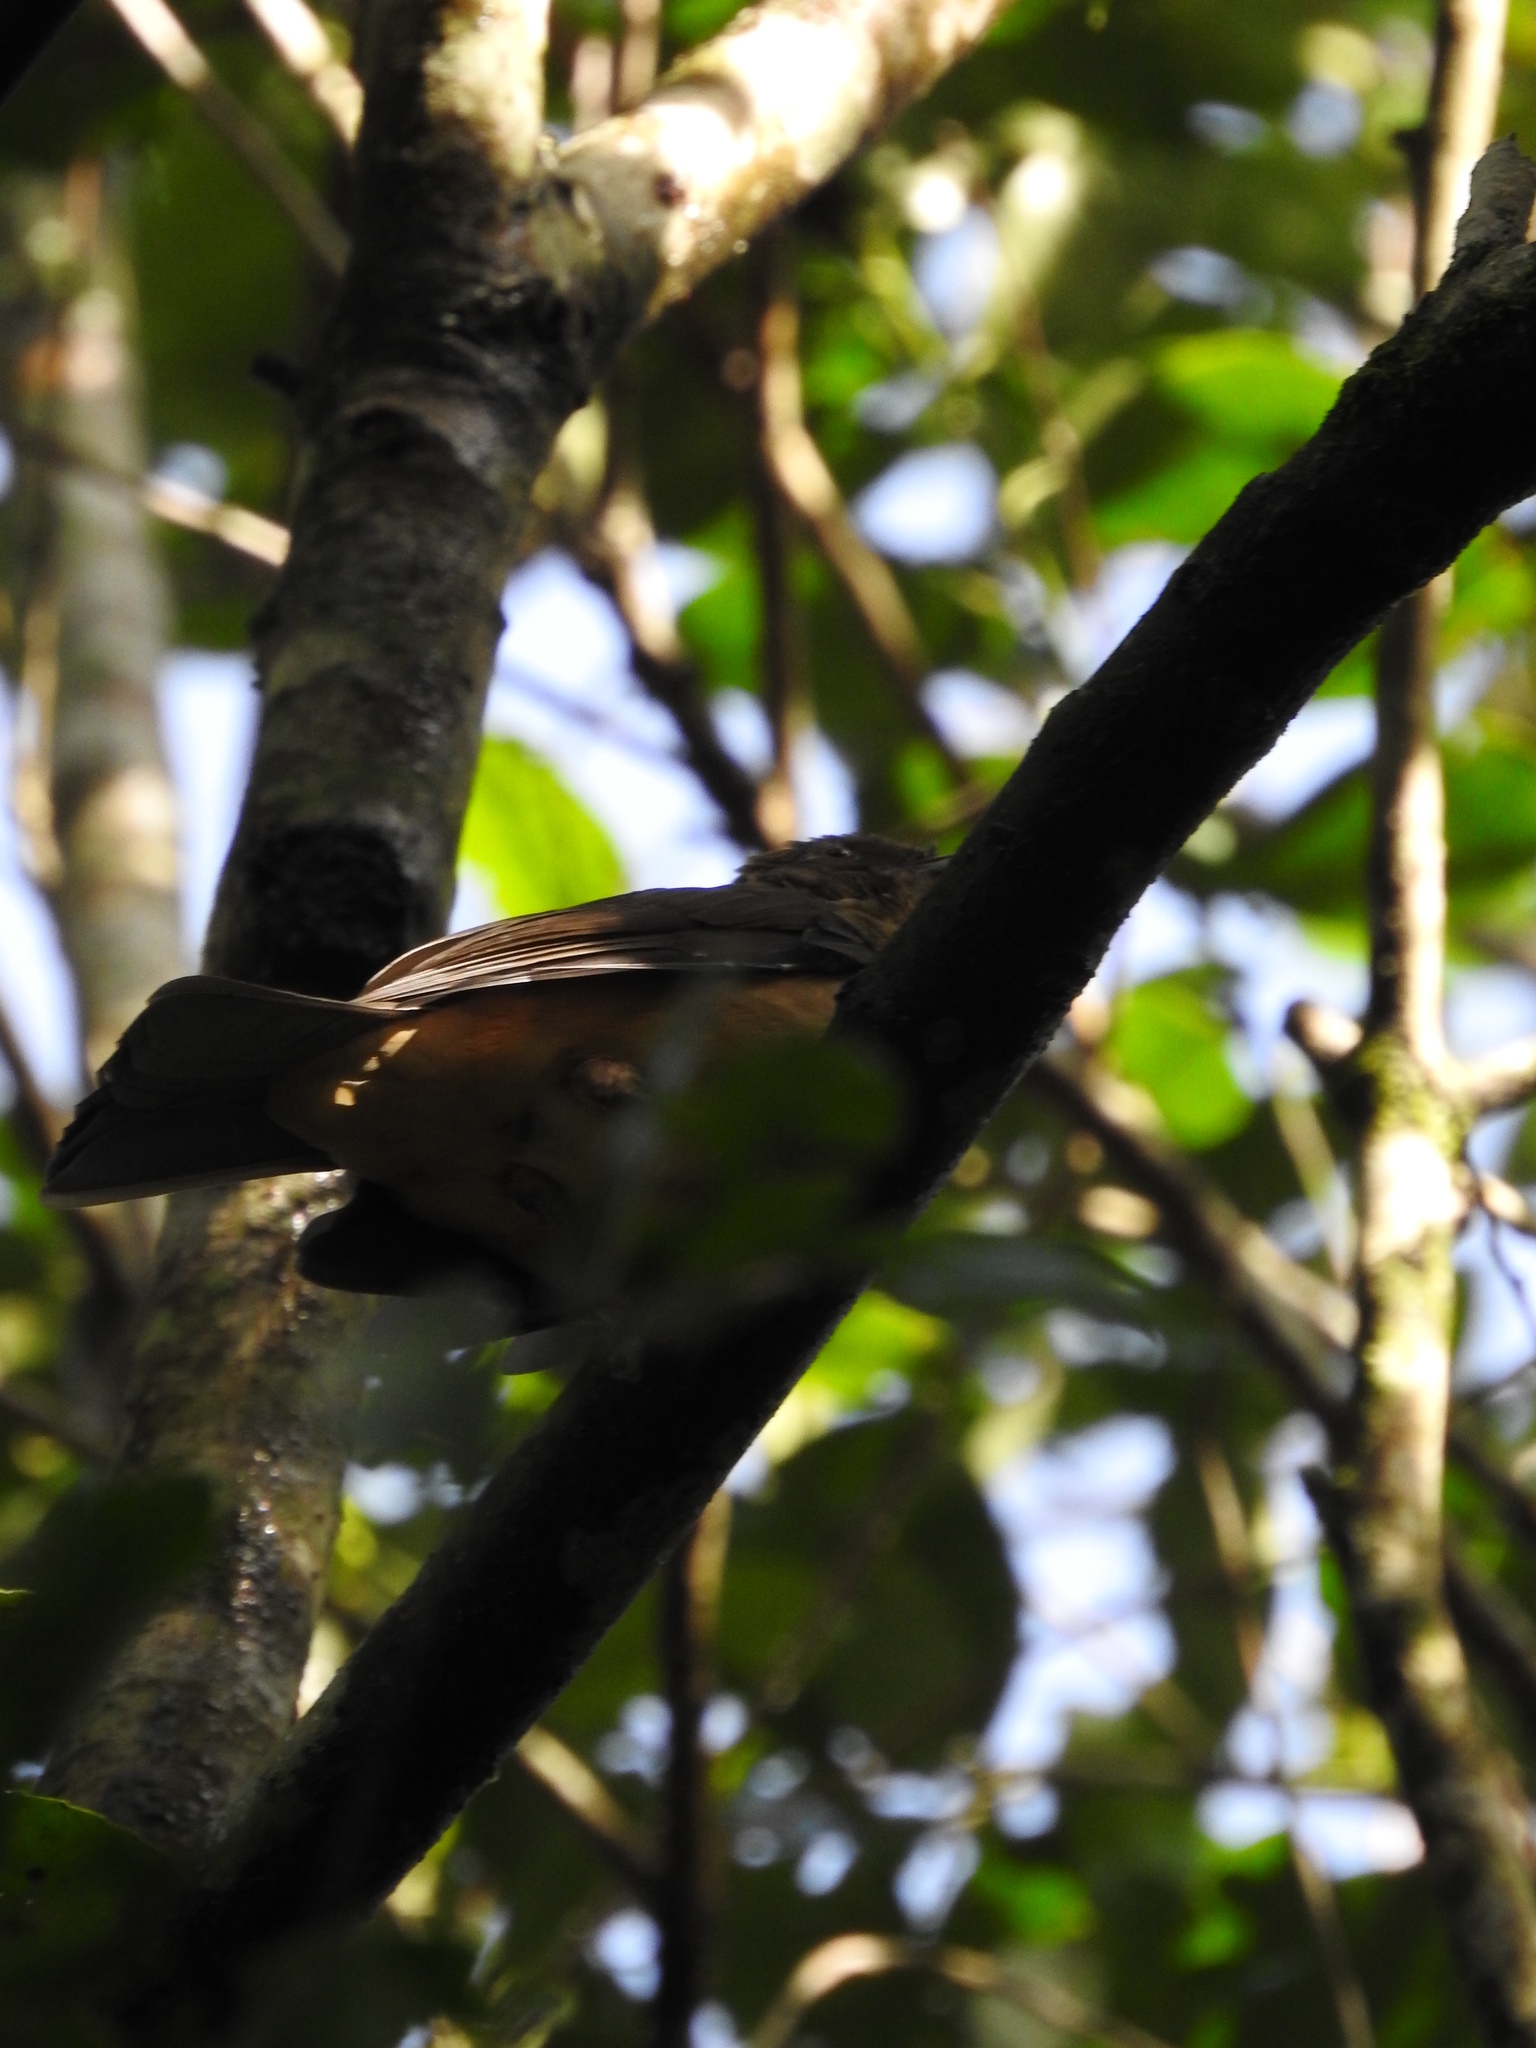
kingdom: Animalia
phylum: Chordata
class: Aves
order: Passeriformes
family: Turdidae
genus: Turdus
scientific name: Turdus grayi
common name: Clay-colored thrush
